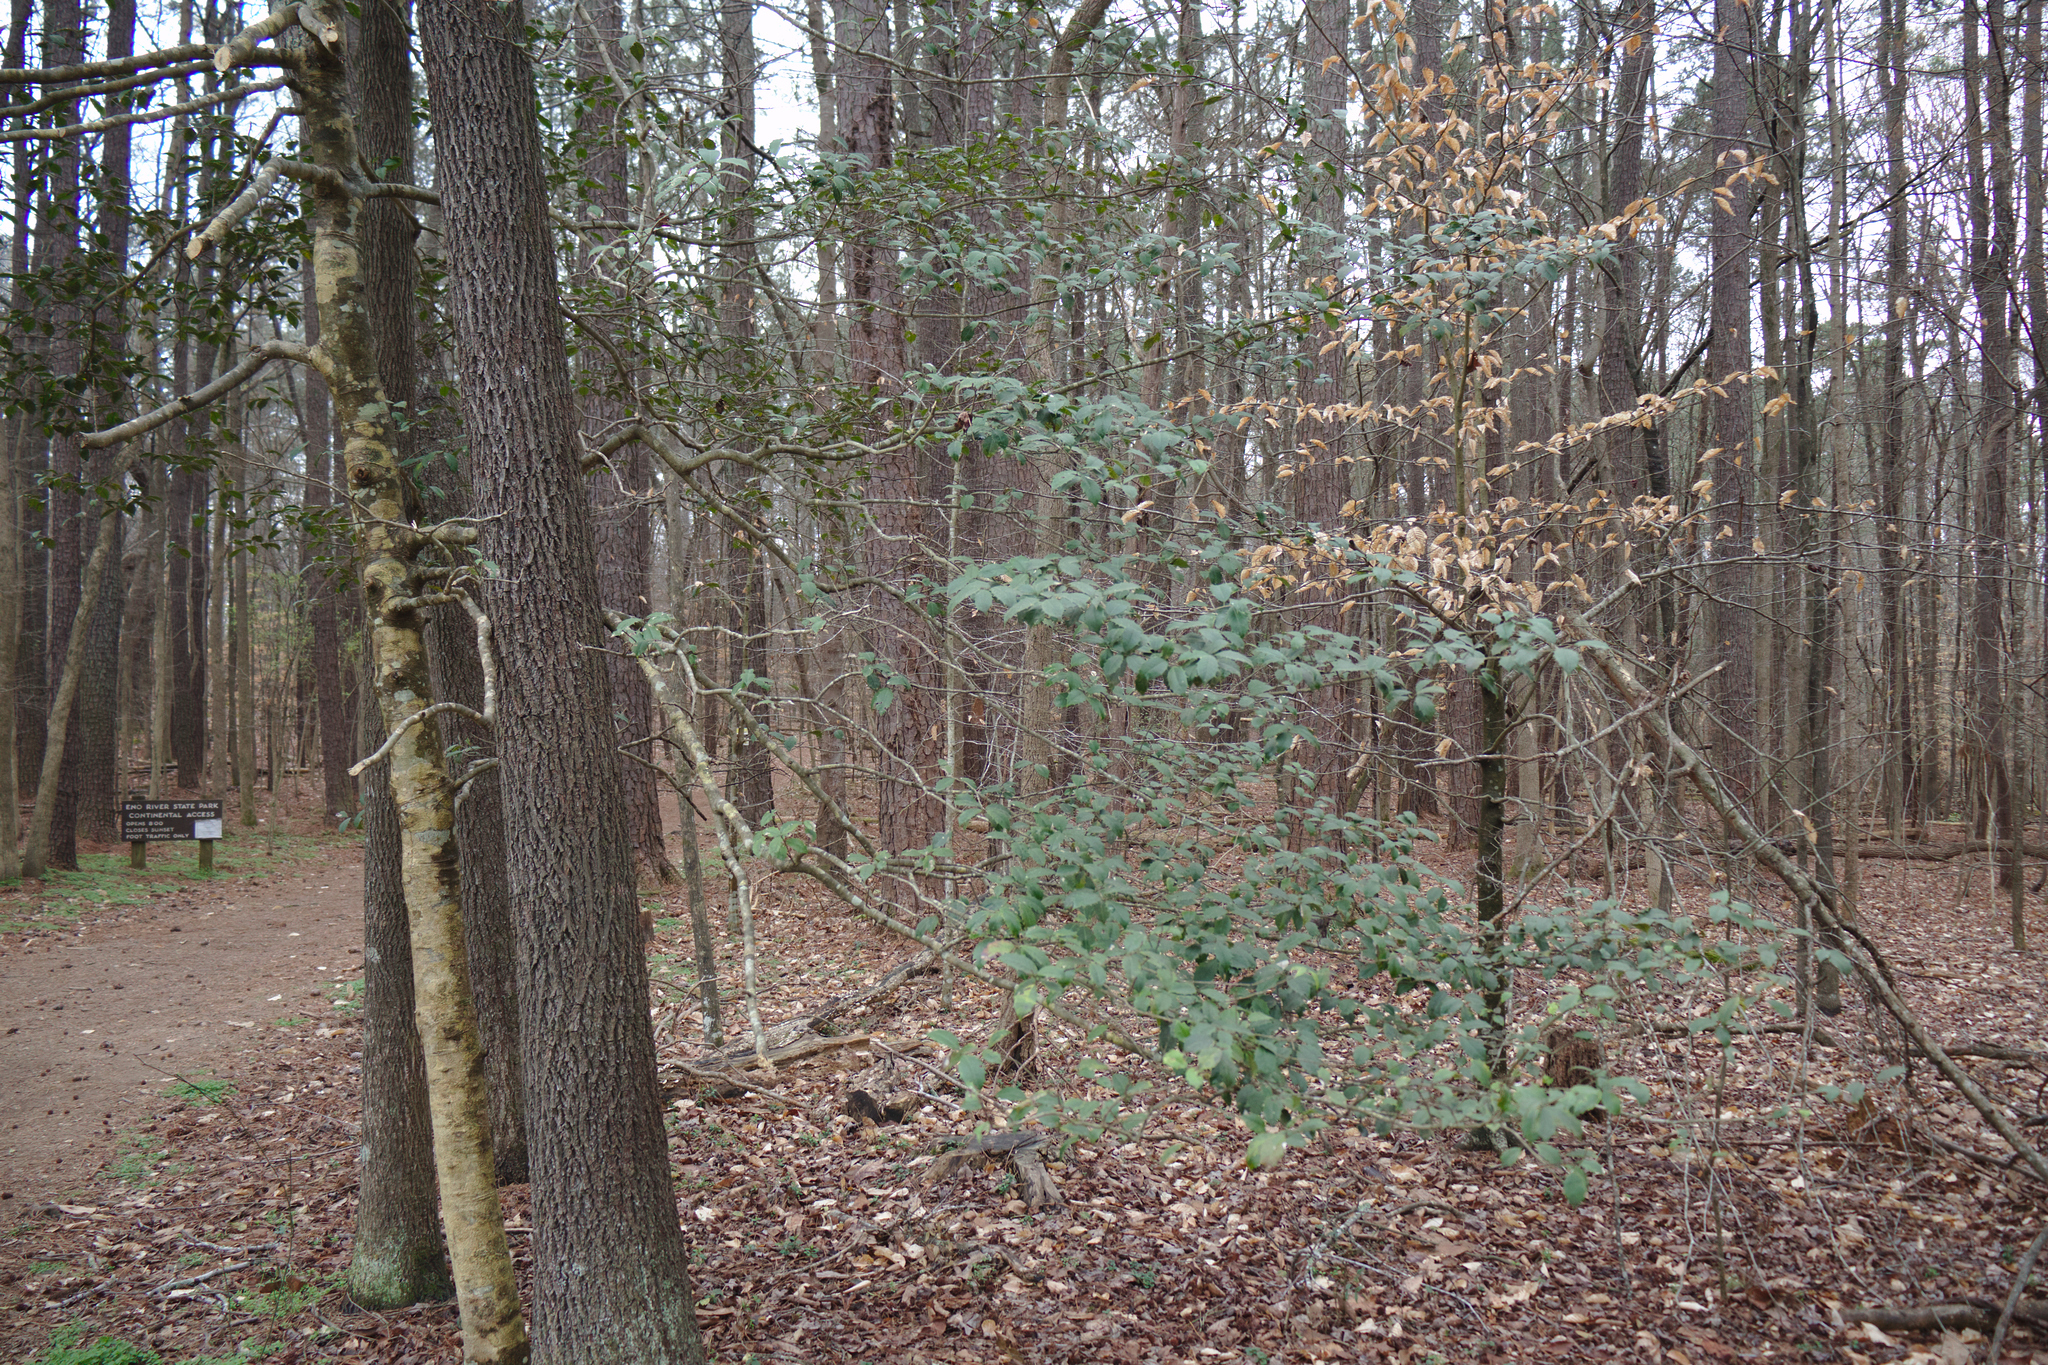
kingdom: Plantae
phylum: Tracheophyta
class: Magnoliopsida
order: Aquifoliales
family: Aquifoliaceae
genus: Ilex
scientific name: Ilex opaca
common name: American holly
